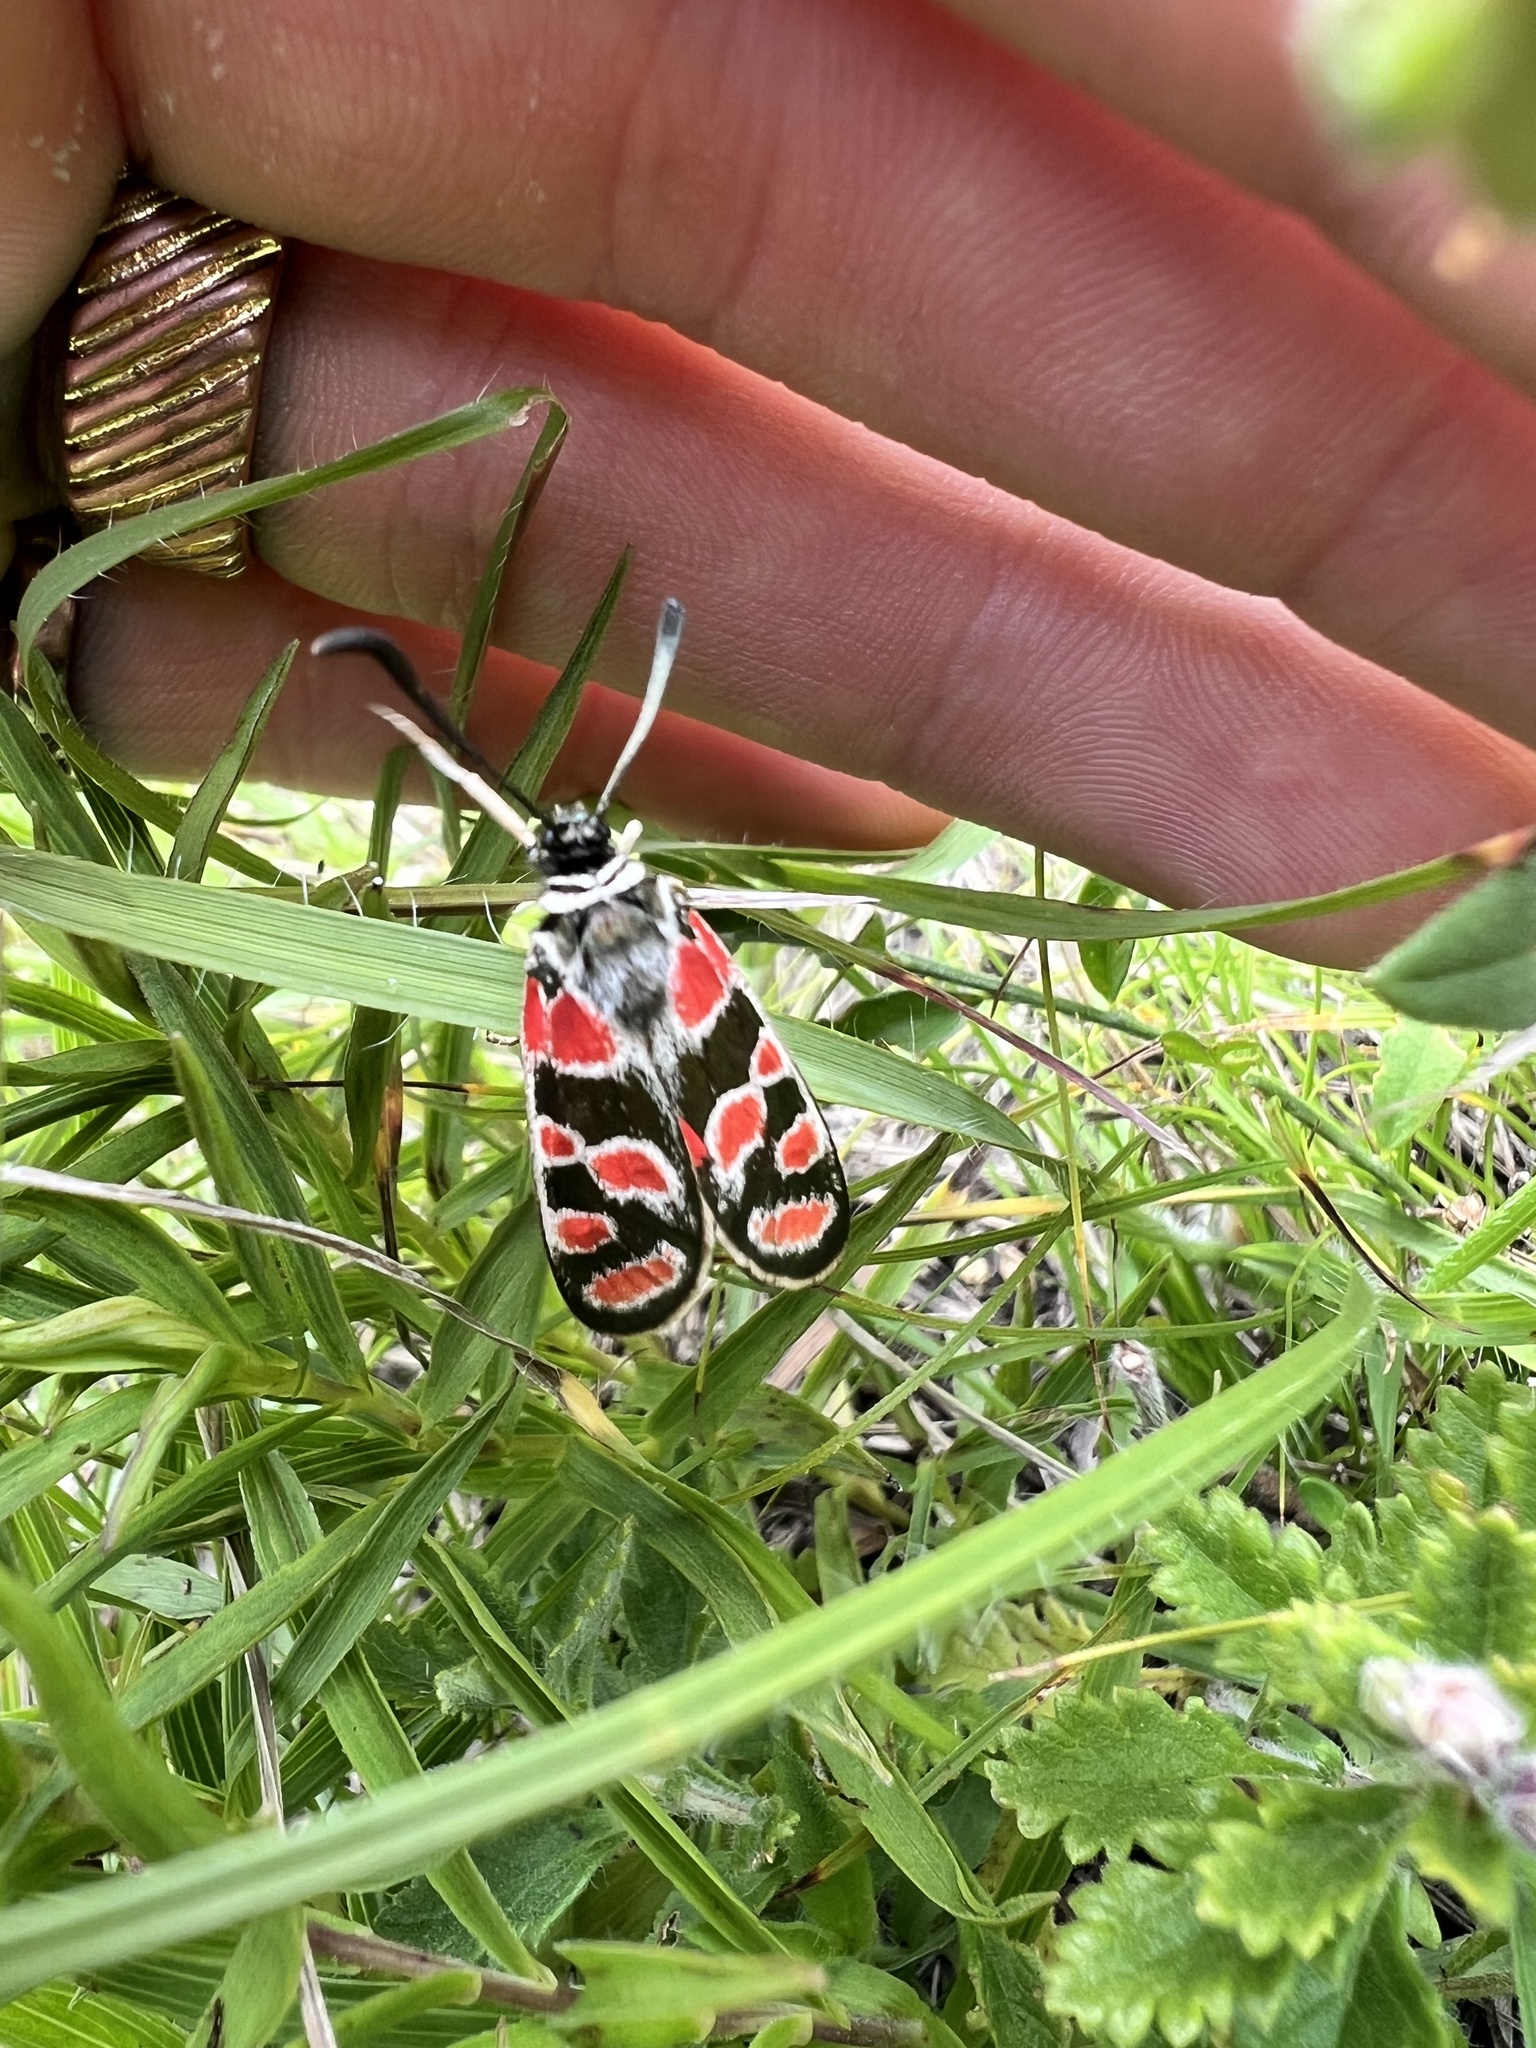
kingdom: Animalia
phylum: Arthropoda
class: Insecta
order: Lepidoptera
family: Zygaenidae
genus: Zygaena
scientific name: Zygaena carniolica
